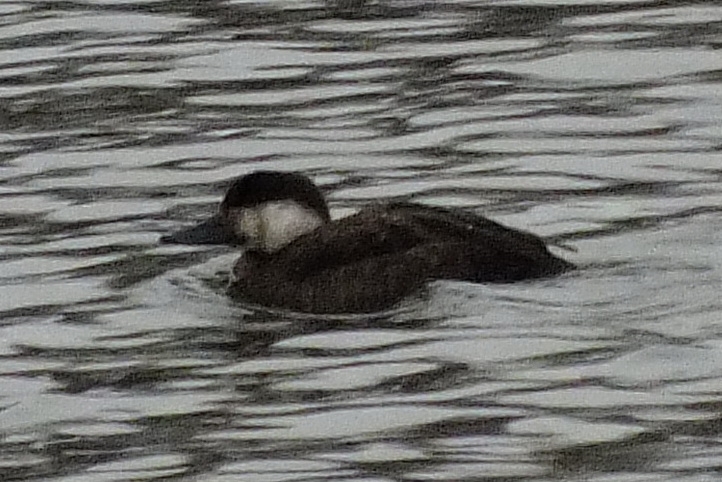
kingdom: Animalia
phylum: Chordata
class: Aves
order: Anseriformes
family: Anatidae
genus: Melanitta
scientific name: Melanitta nigra
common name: Common scoter
